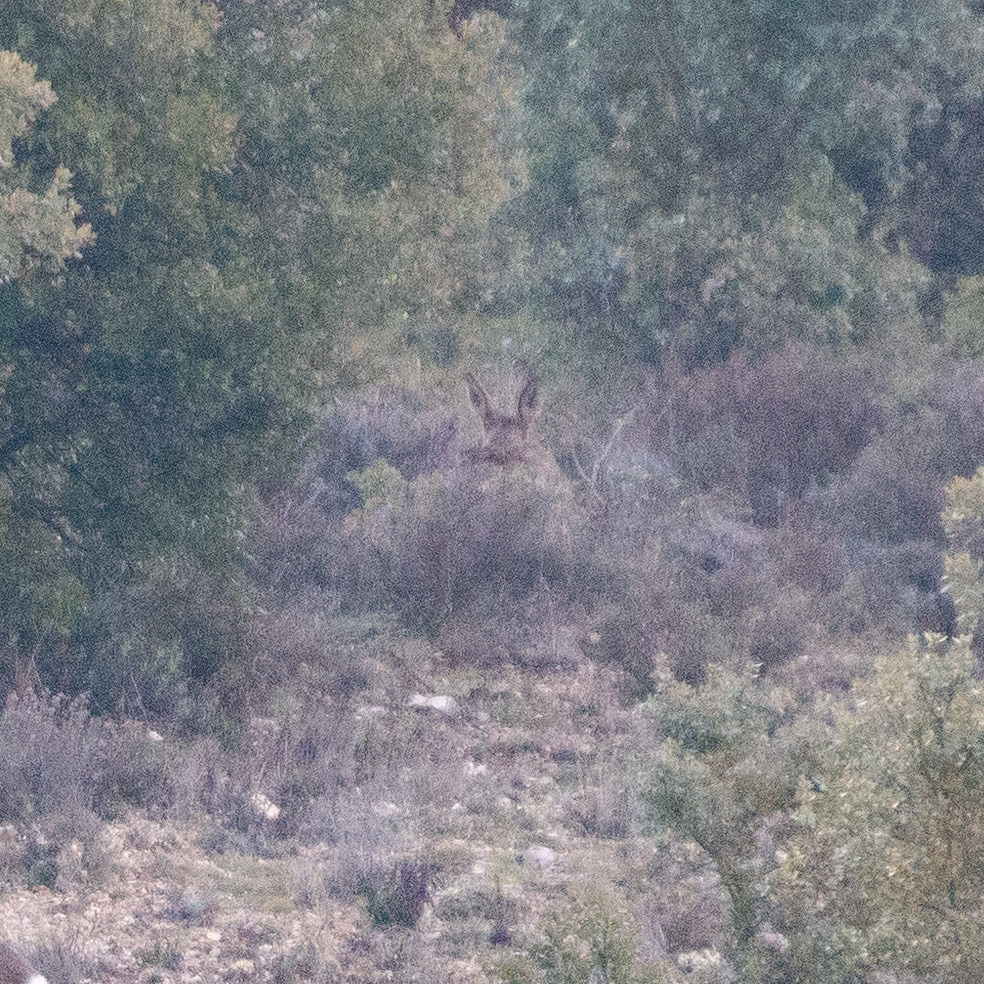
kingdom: Animalia
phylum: Chordata
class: Mammalia
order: Artiodactyla
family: Cervidae
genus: Capreolus
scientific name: Capreolus capreolus
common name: Western roe deer
